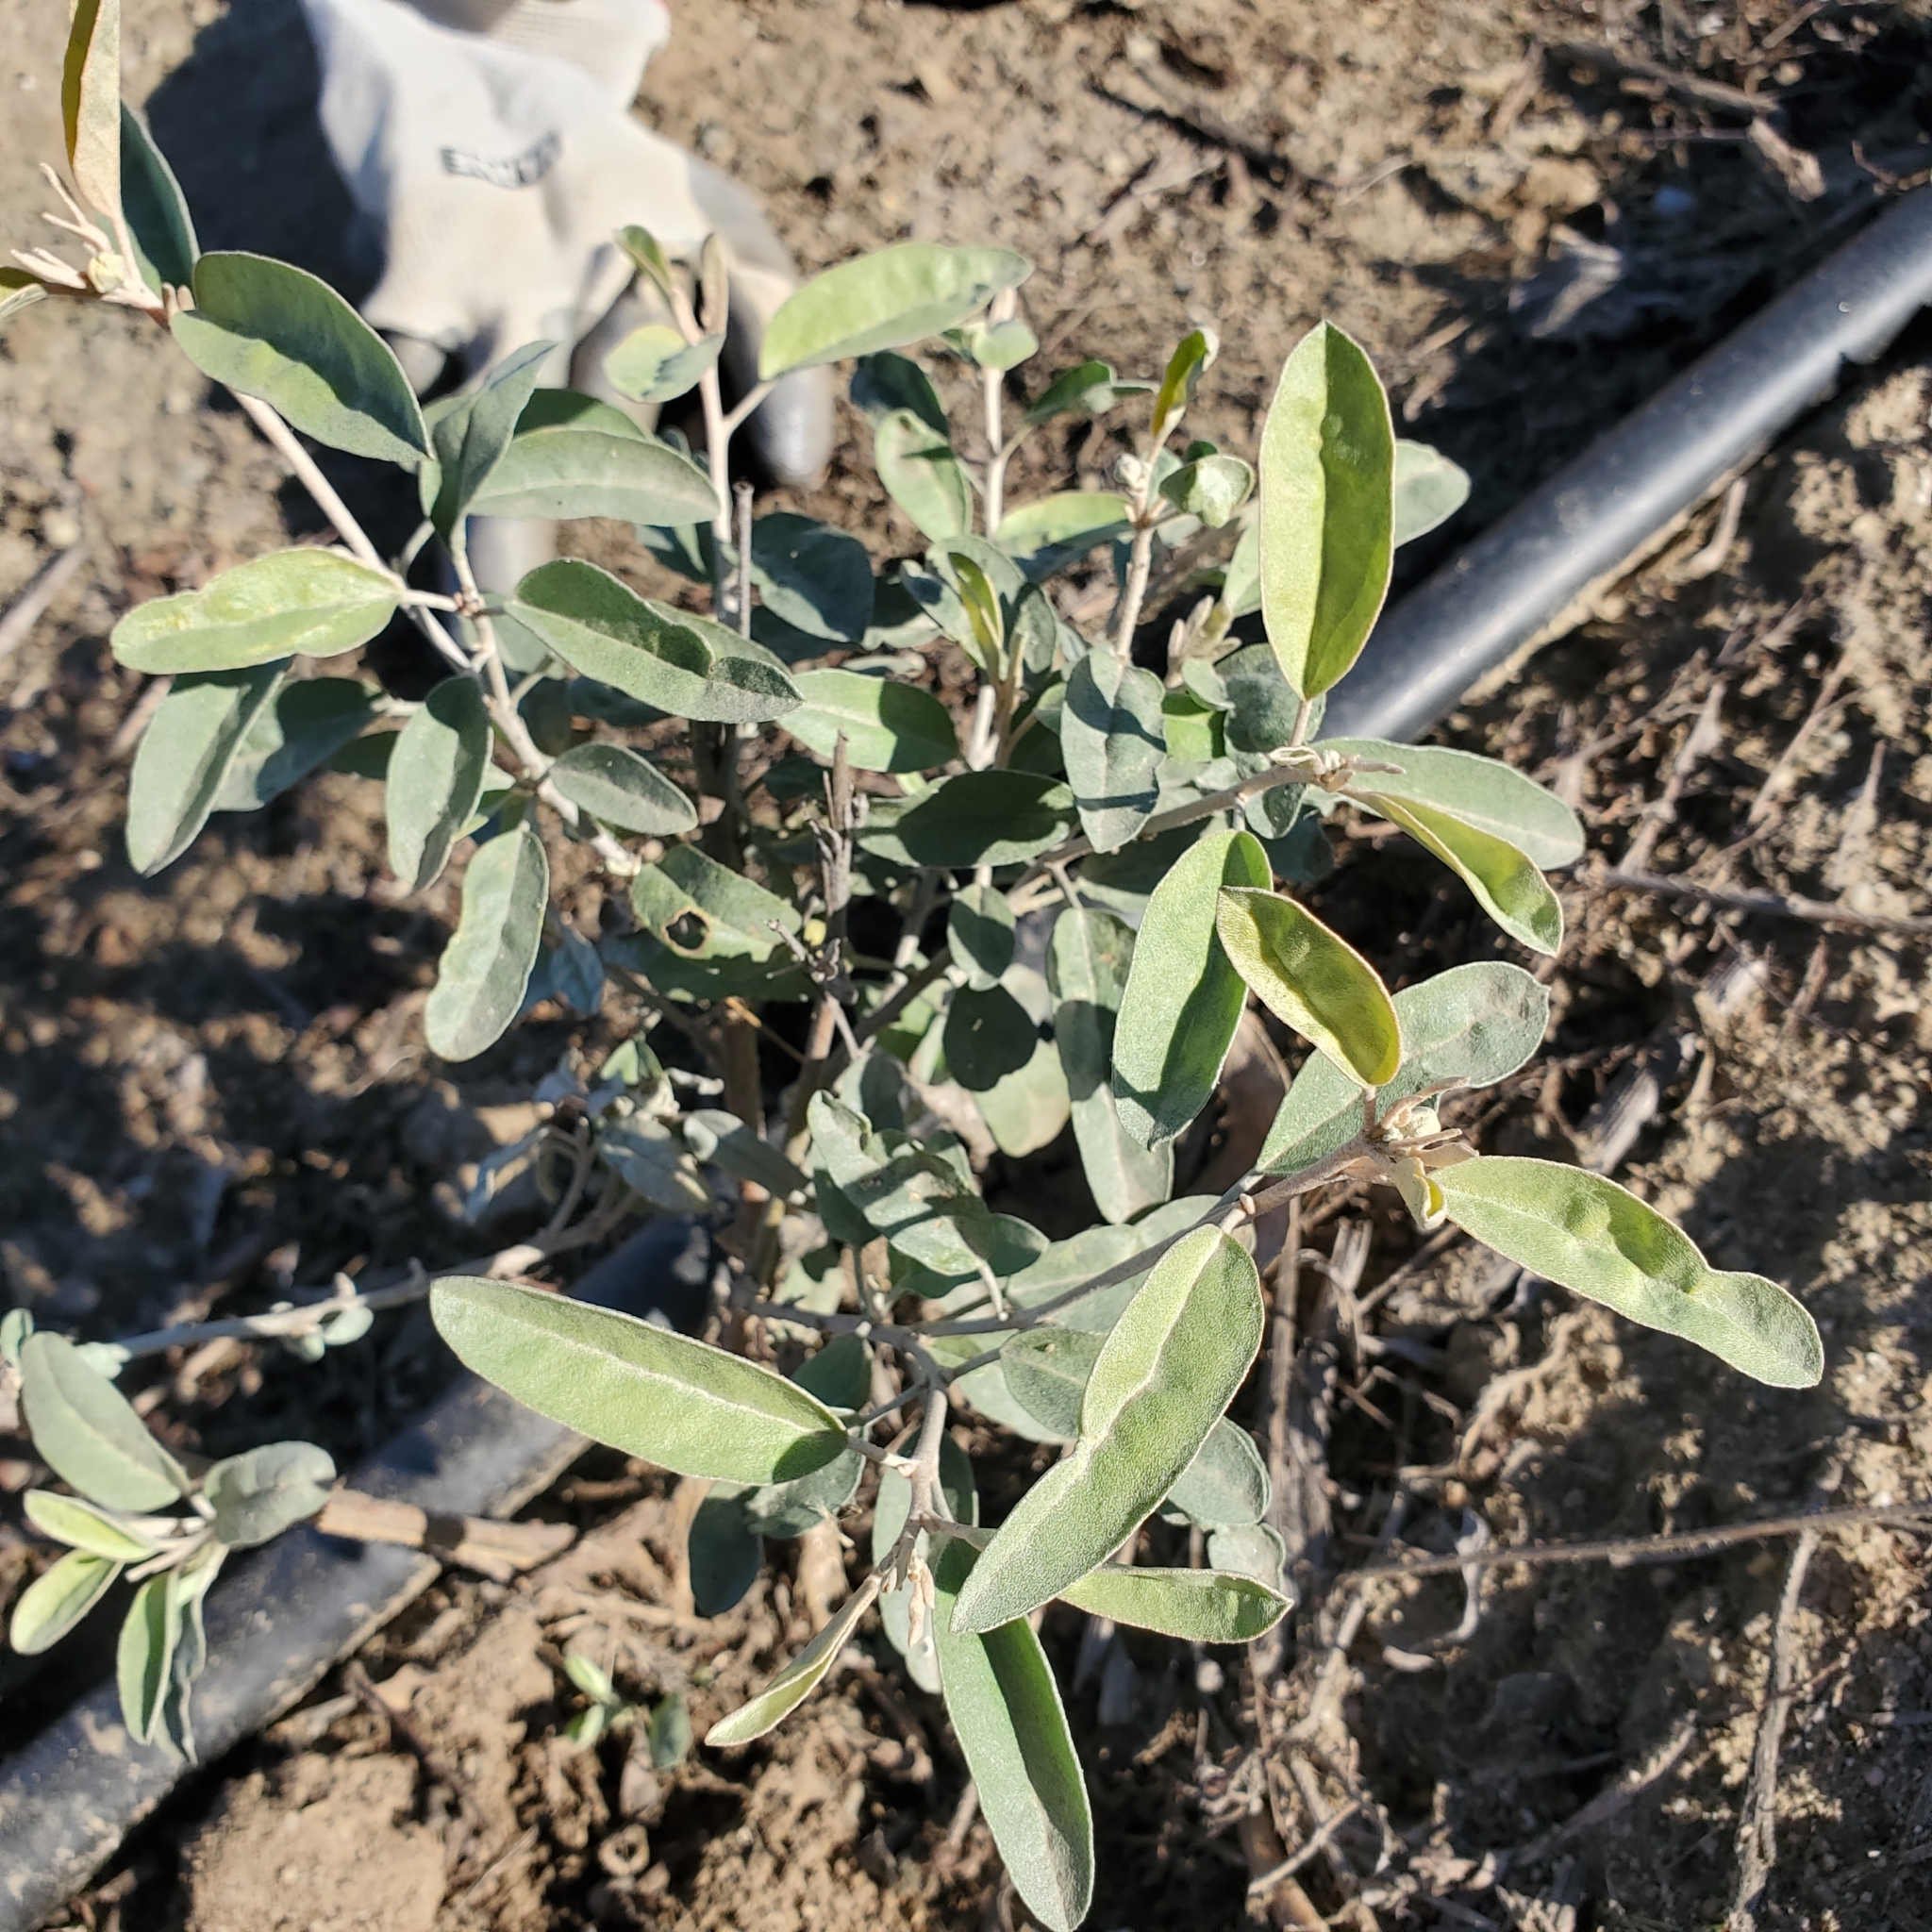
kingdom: Plantae
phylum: Tracheophyta
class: Magnoliopsida
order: Malpighiales
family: Euphorbiaceae
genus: Croton
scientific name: Croton californicus
